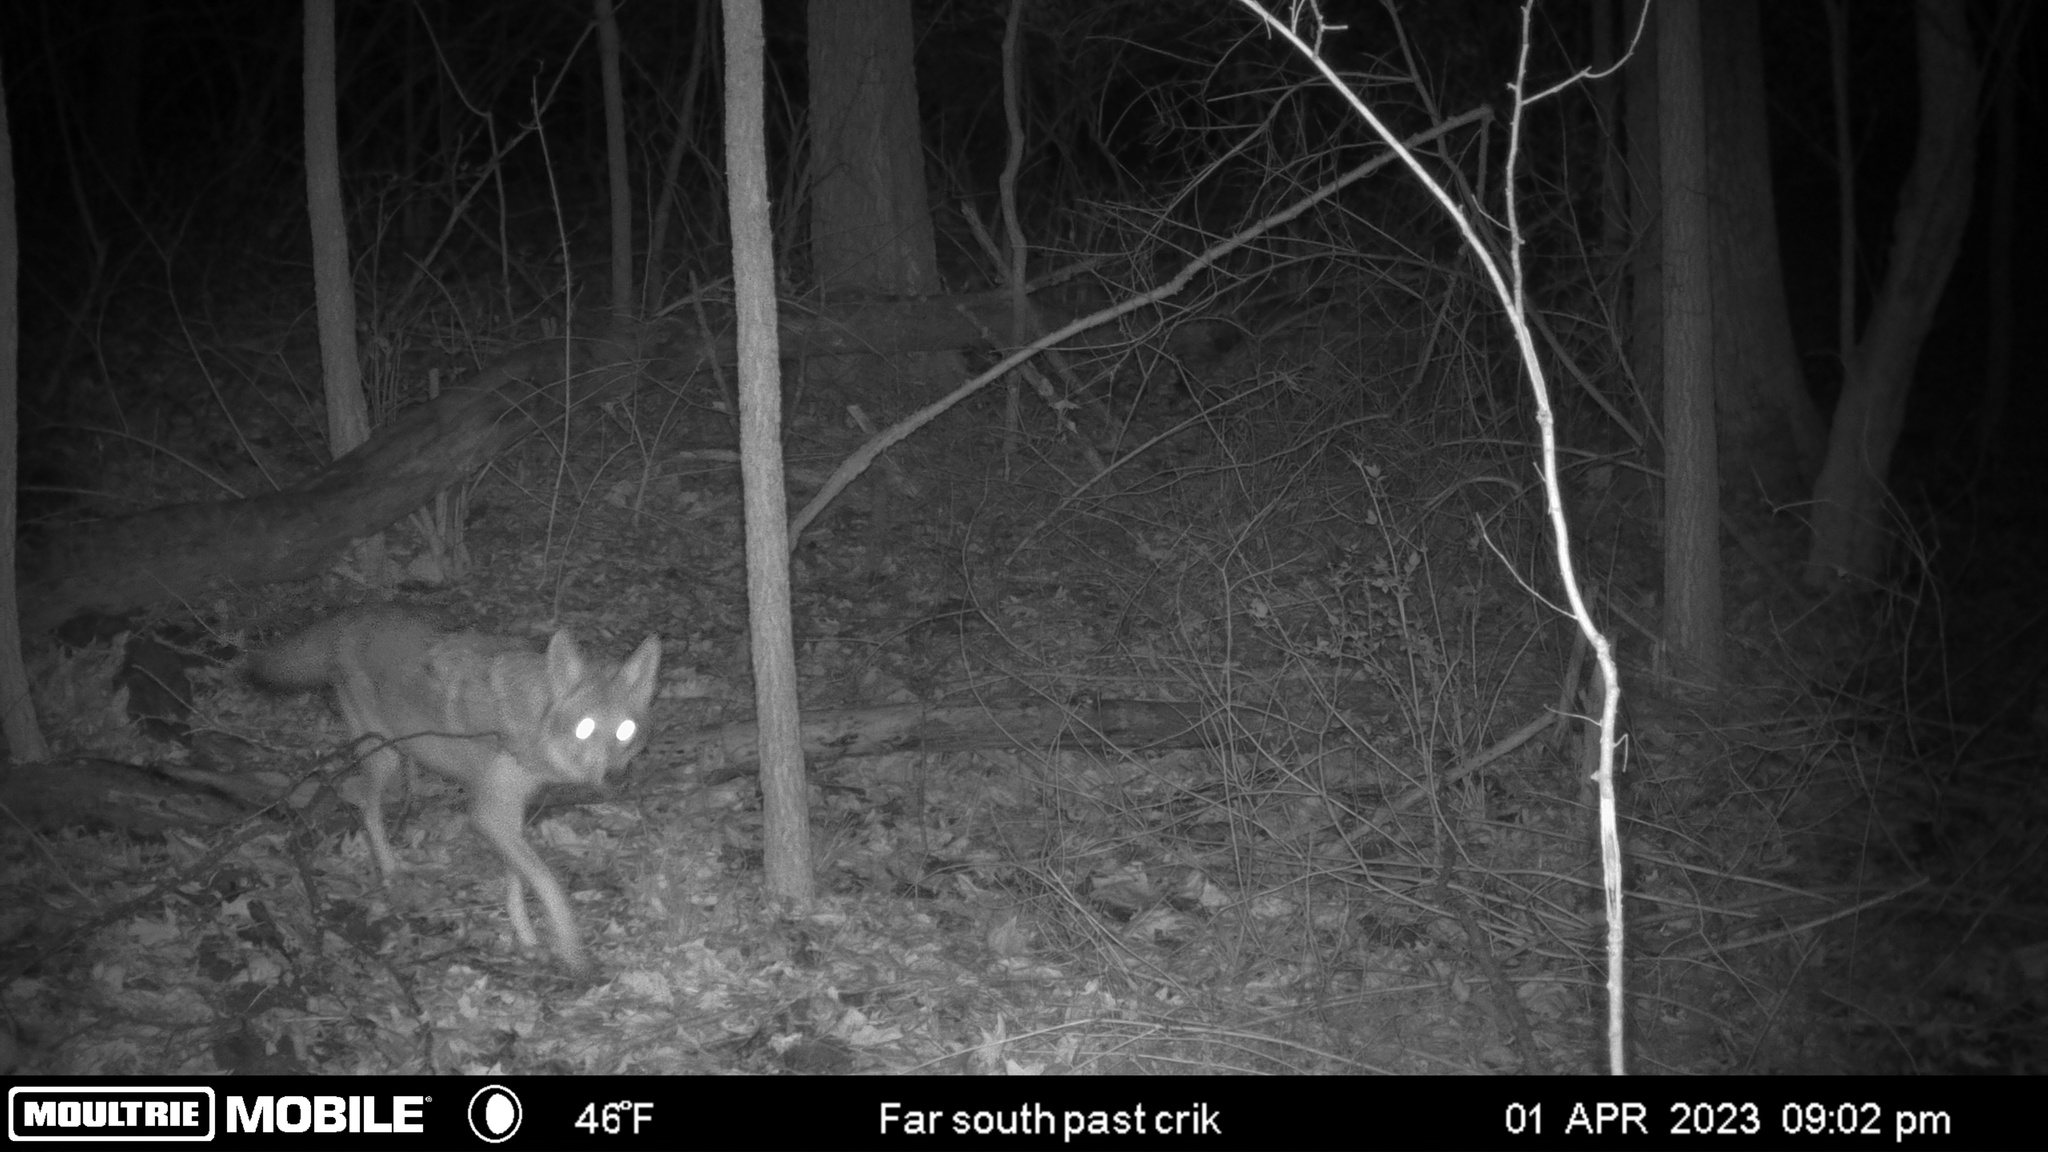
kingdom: Animalia
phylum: Chordata
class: Mammalia
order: Carnivora
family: Canidae
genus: Canis
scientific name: Canis latrans
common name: Coyote
